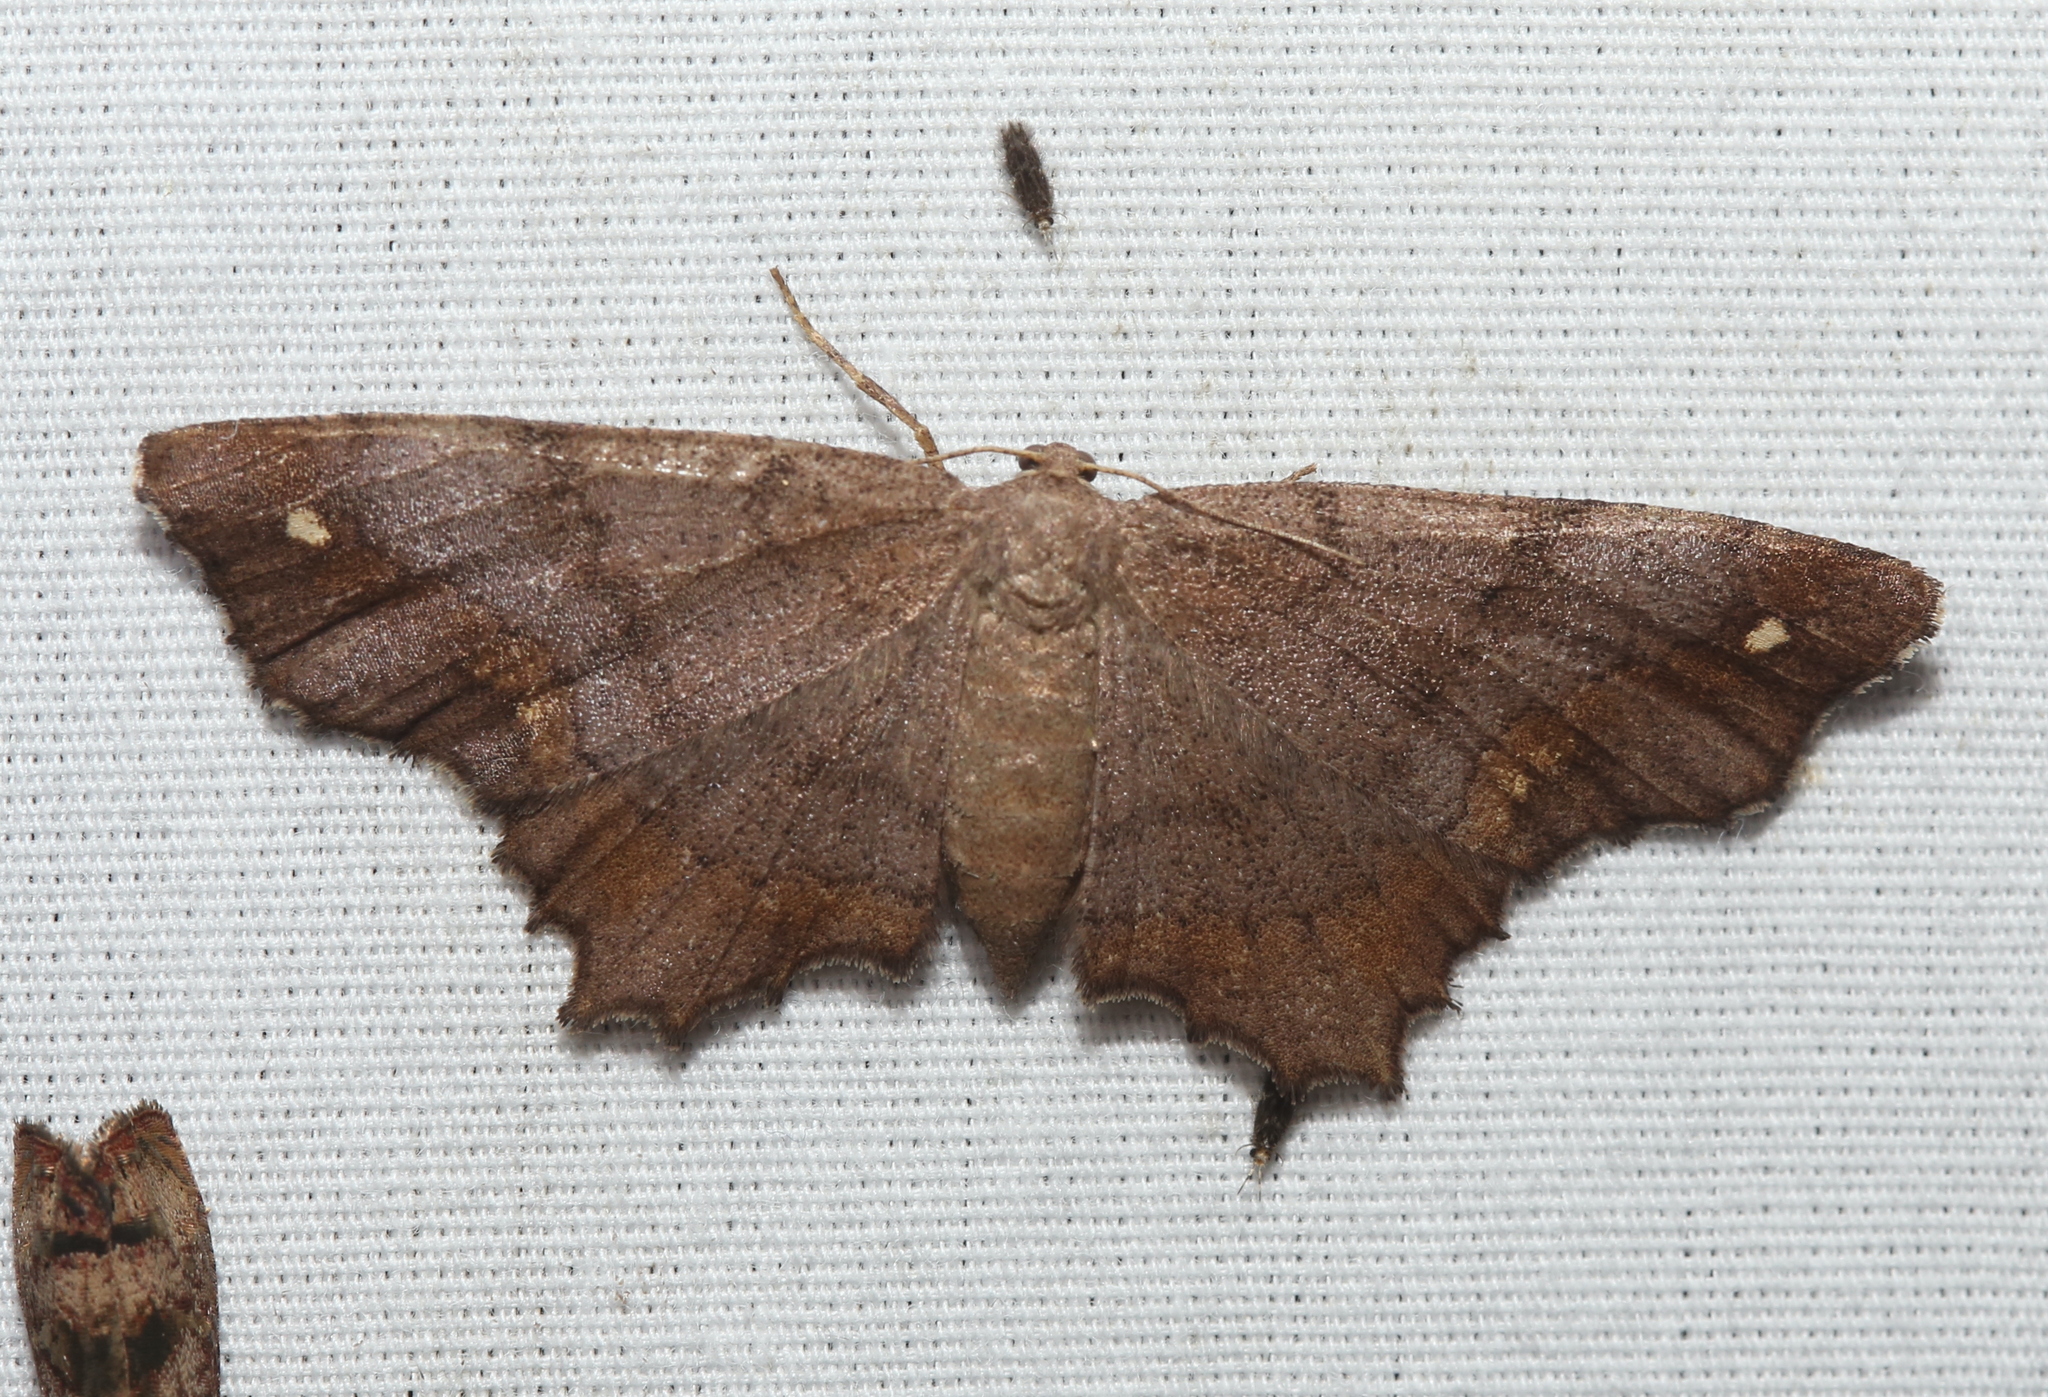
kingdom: Animalia
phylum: Arthropoda
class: Insecta
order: Lepidoptera
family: Geometridae
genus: Hypagyrtis
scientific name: Hypagyrtis esther
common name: Esther moth
